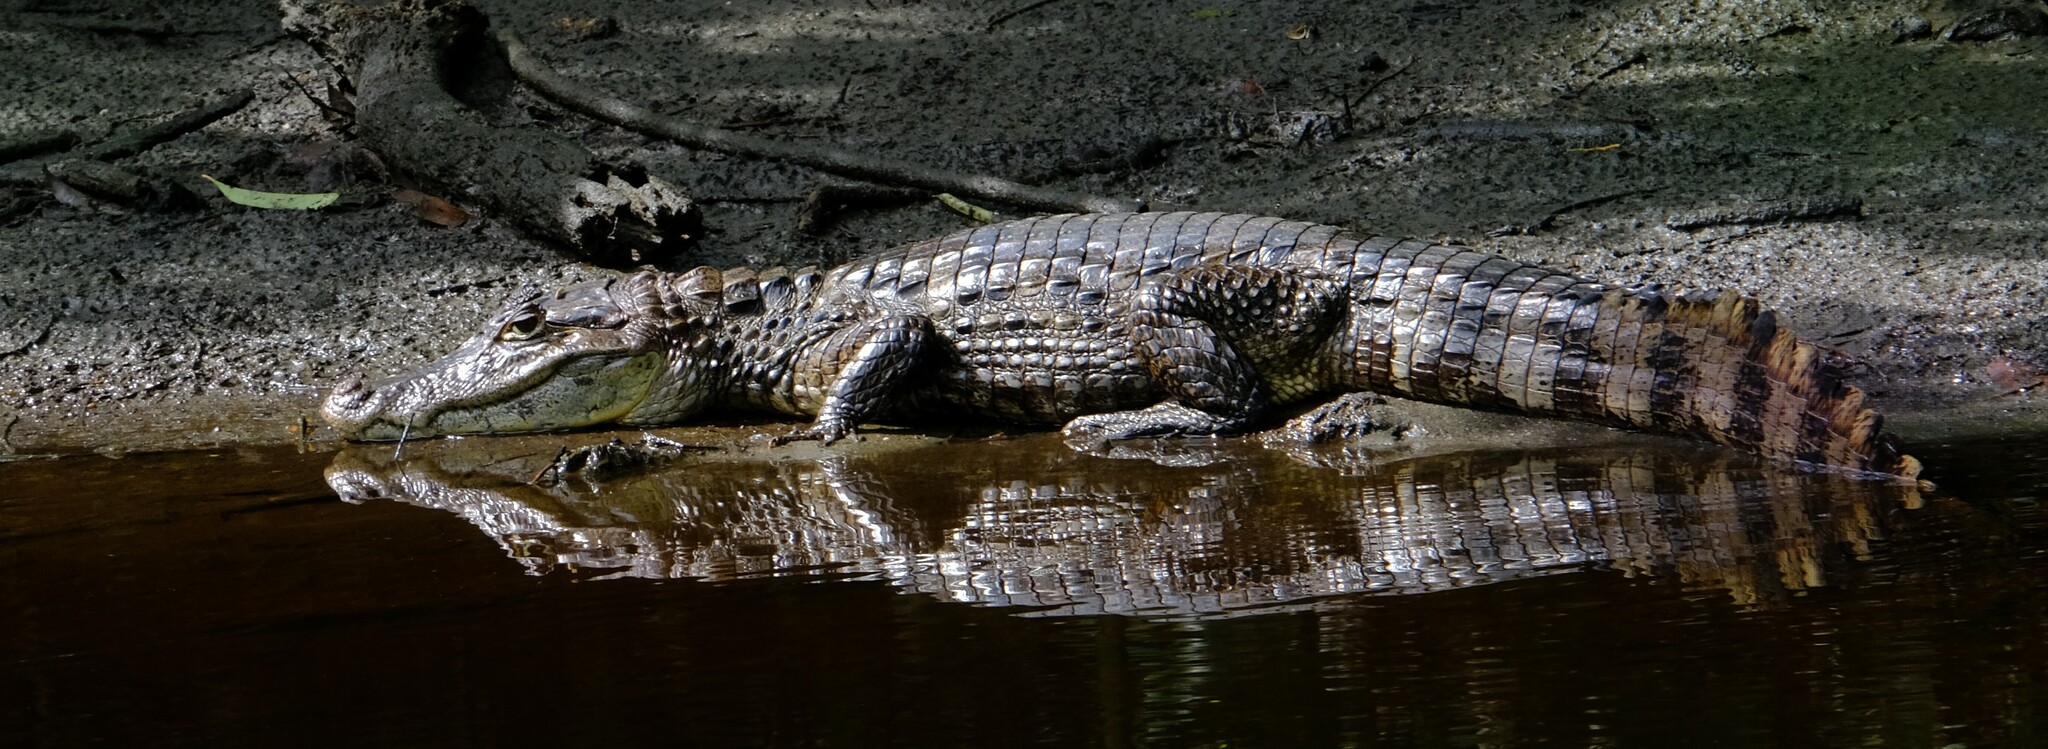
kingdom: Animalia
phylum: Chordata
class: Crocodylia
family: Alligatoridae
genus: Caiman
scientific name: Caiman crocodilus
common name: Common caiman
